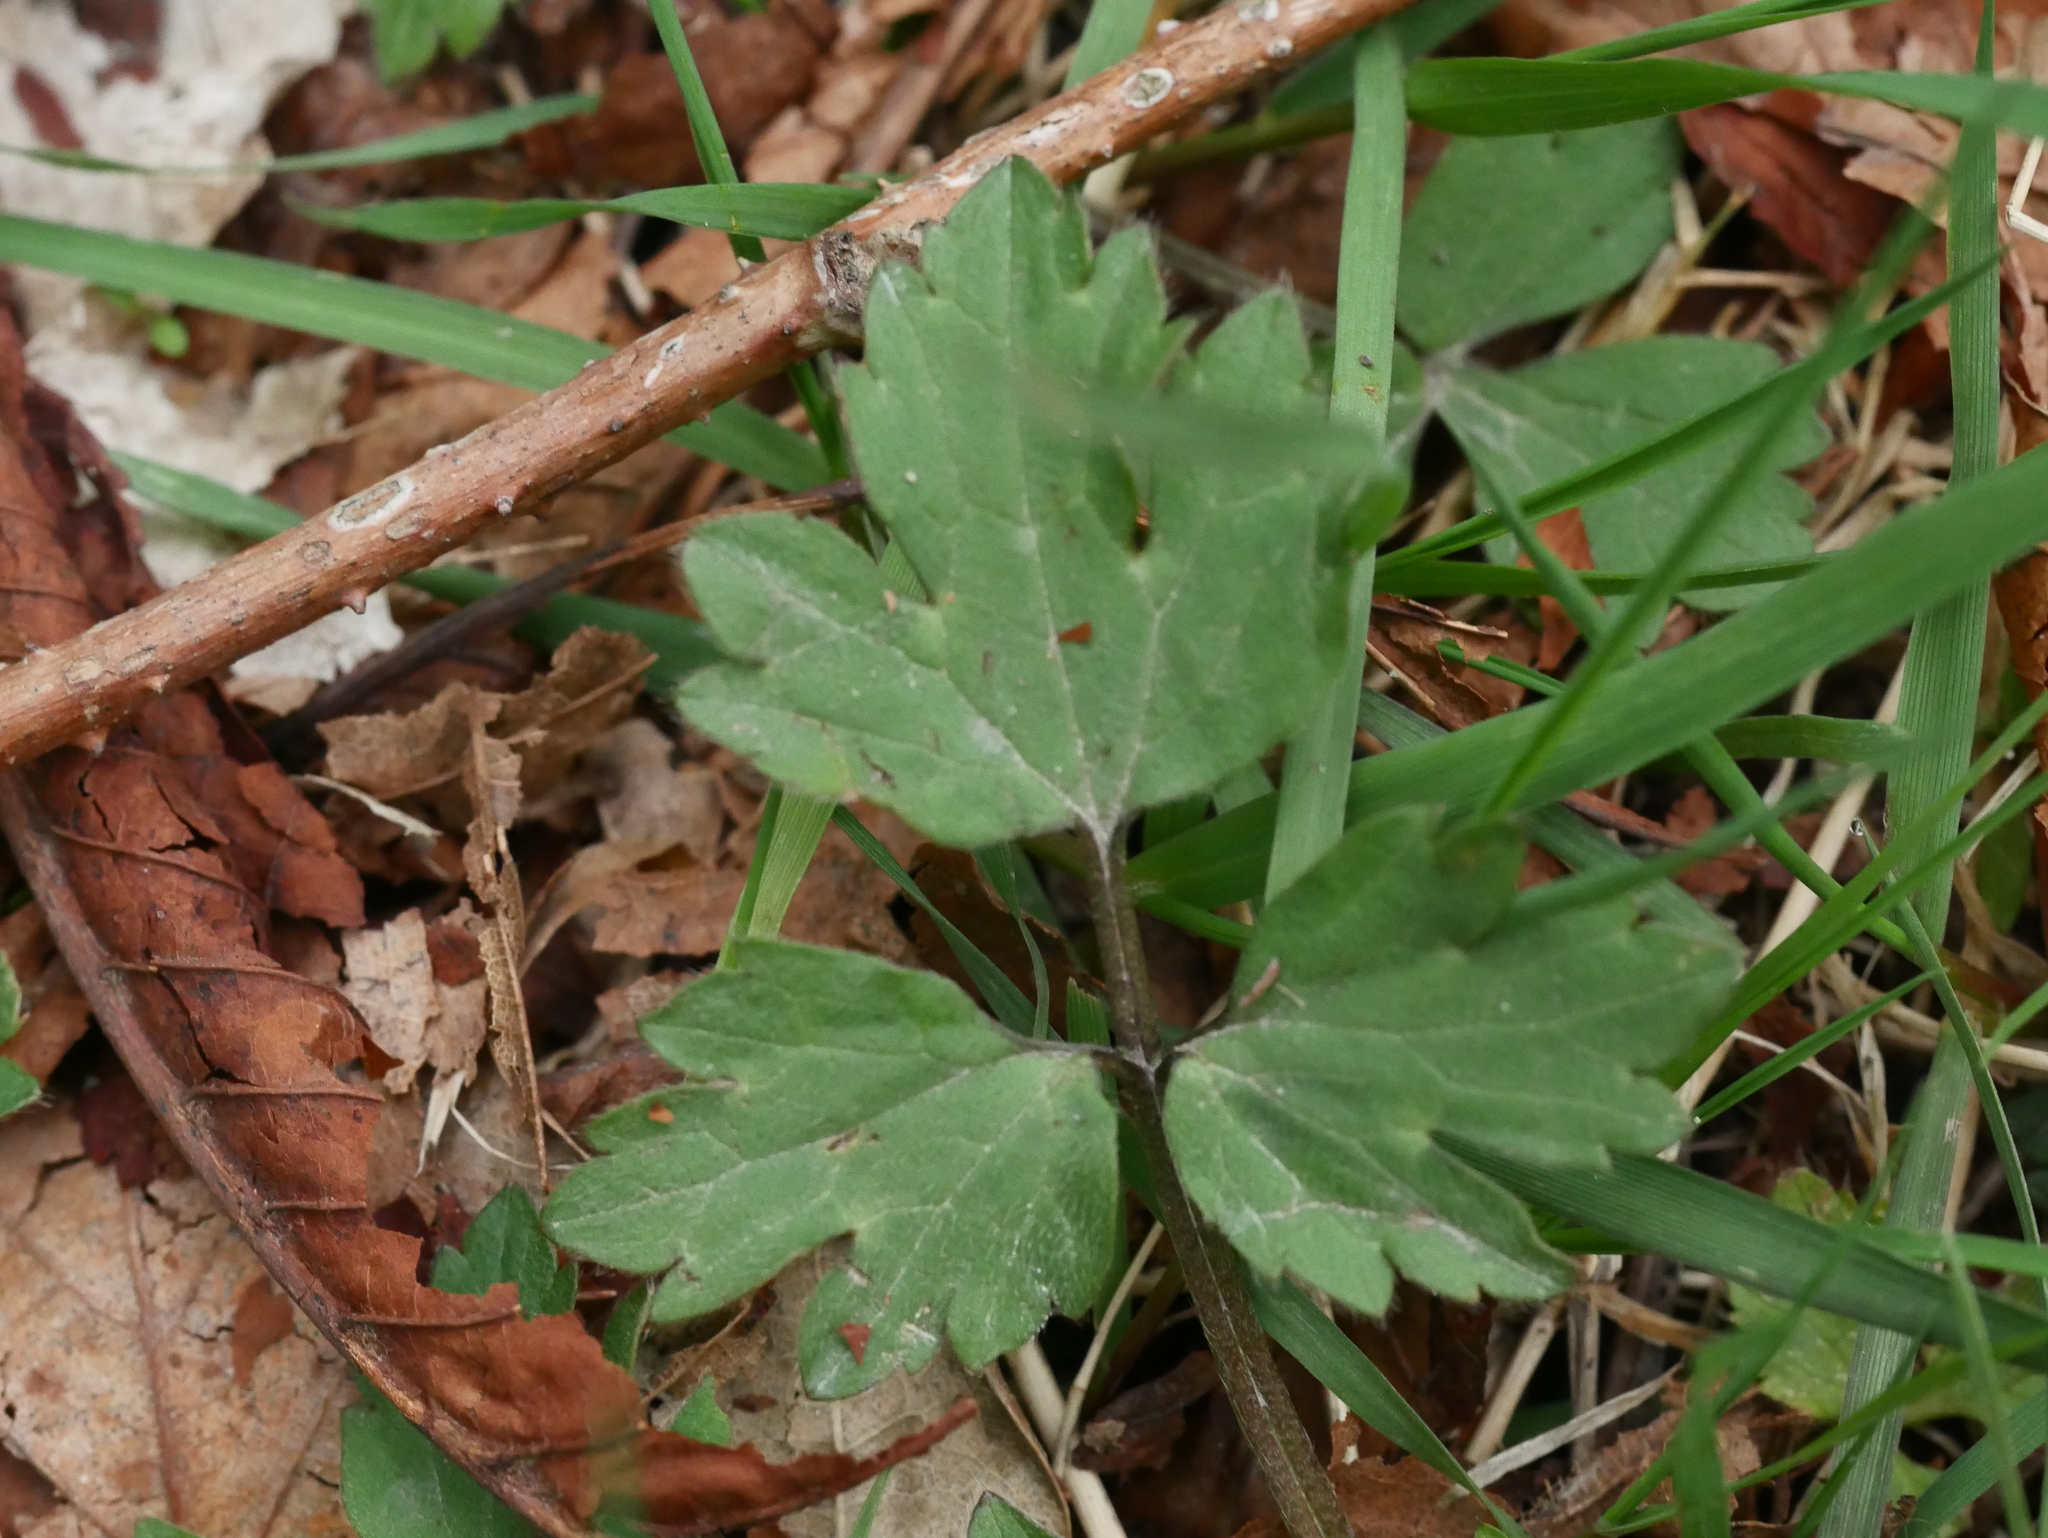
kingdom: Plantae
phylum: Tracheophyta
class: Magnoliopsida
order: Ranunculales
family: Ranunculaceae
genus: Ranunculus
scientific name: Ranunculus repens
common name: Creeping buttercup
